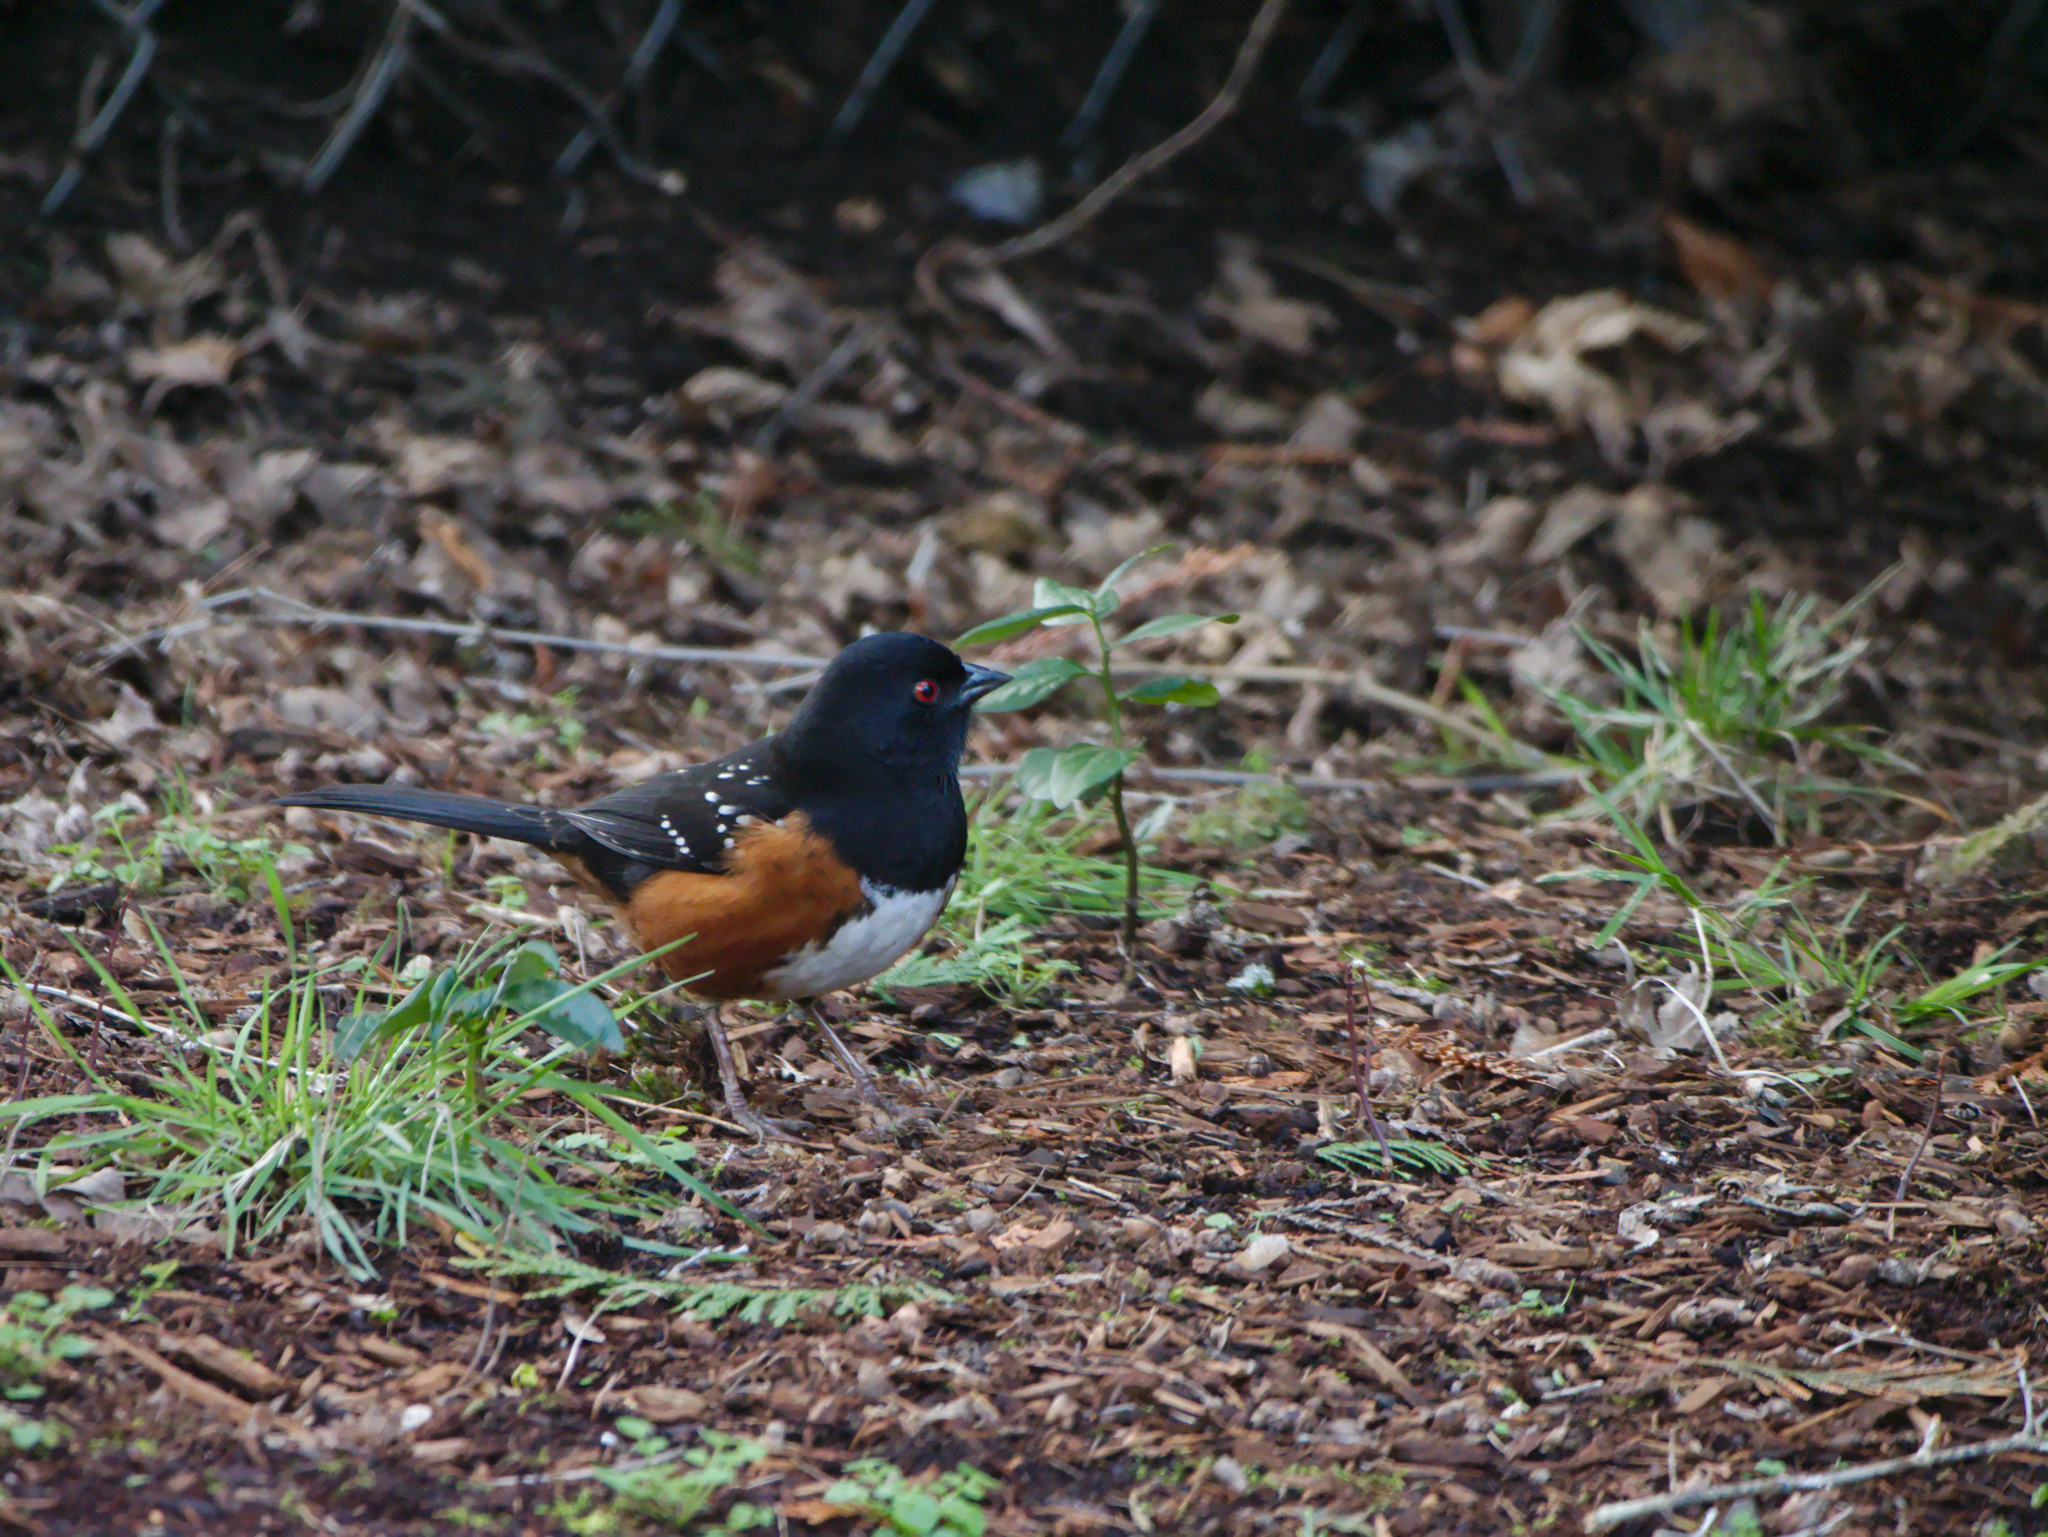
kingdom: Animalia
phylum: Chordata
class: Aves
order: Passeriformes
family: Passerellidae
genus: Pipilo
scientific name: Pipilo maculatus
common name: Spotted towhee
